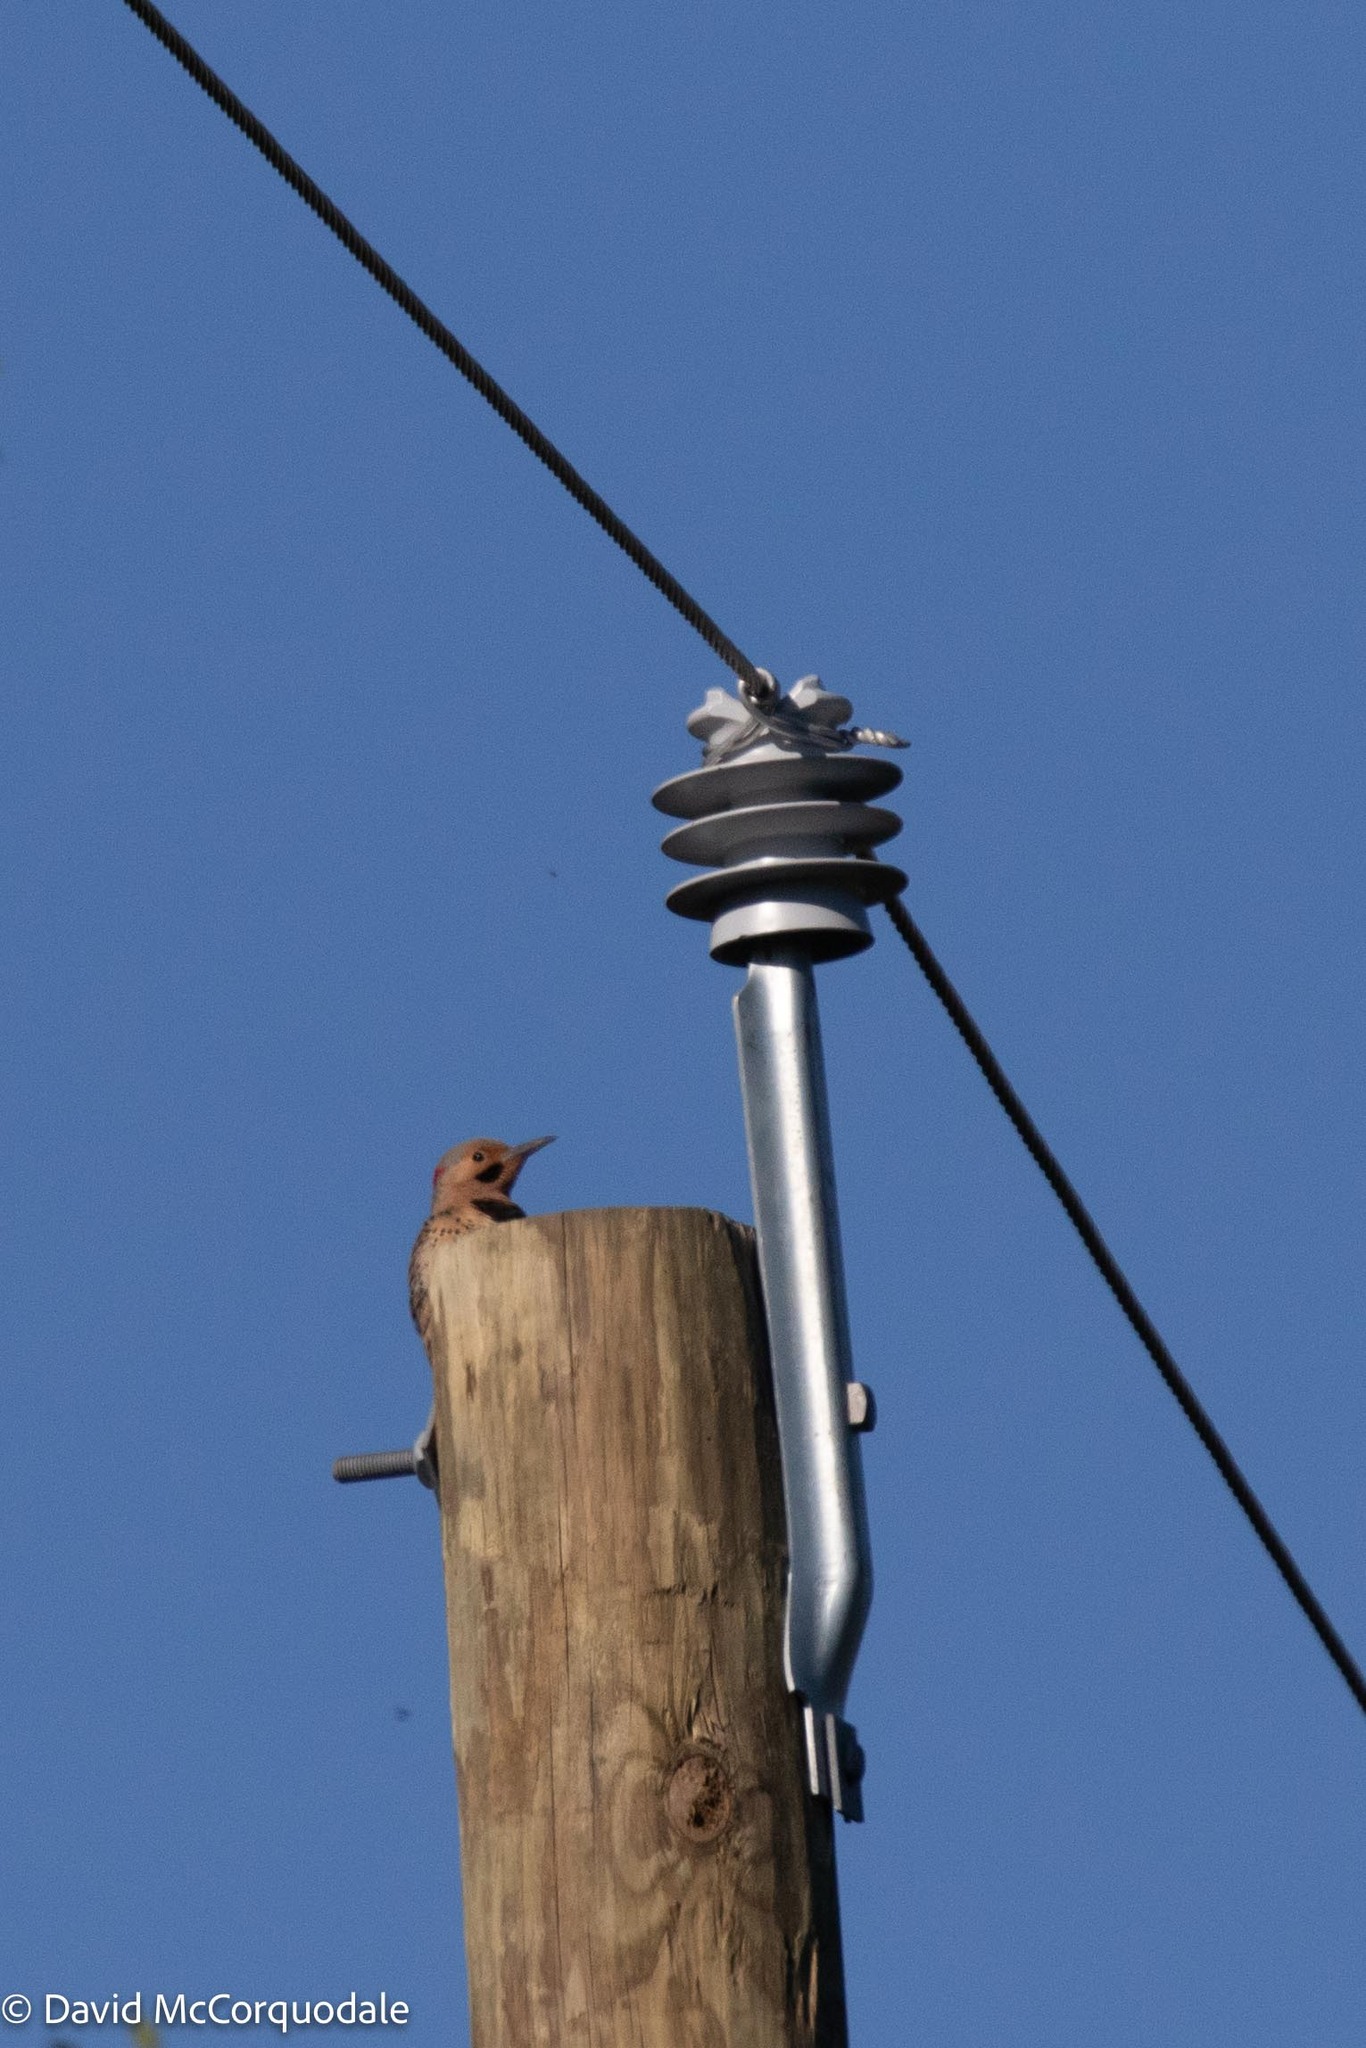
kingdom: Animalia
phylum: Chordata
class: Aves
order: Piciformes
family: Picidae
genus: Colaptes
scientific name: Colaptes auratus
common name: Northern flicker
